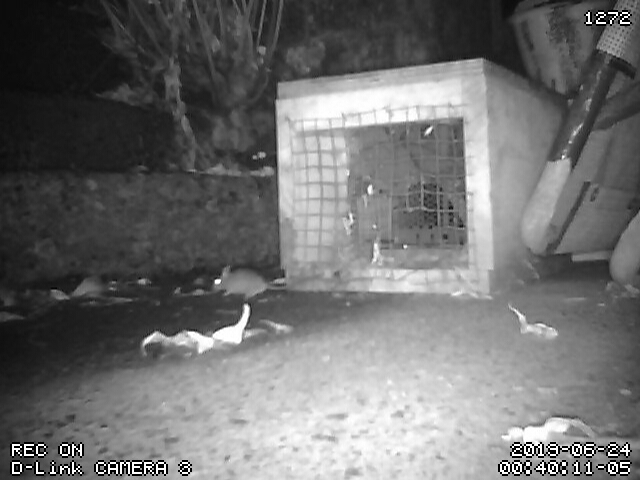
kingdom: Animalia
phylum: Chordata
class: Mammalia
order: Rodentia
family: Muridae
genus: Mus
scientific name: Mus musculus
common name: House mouse
